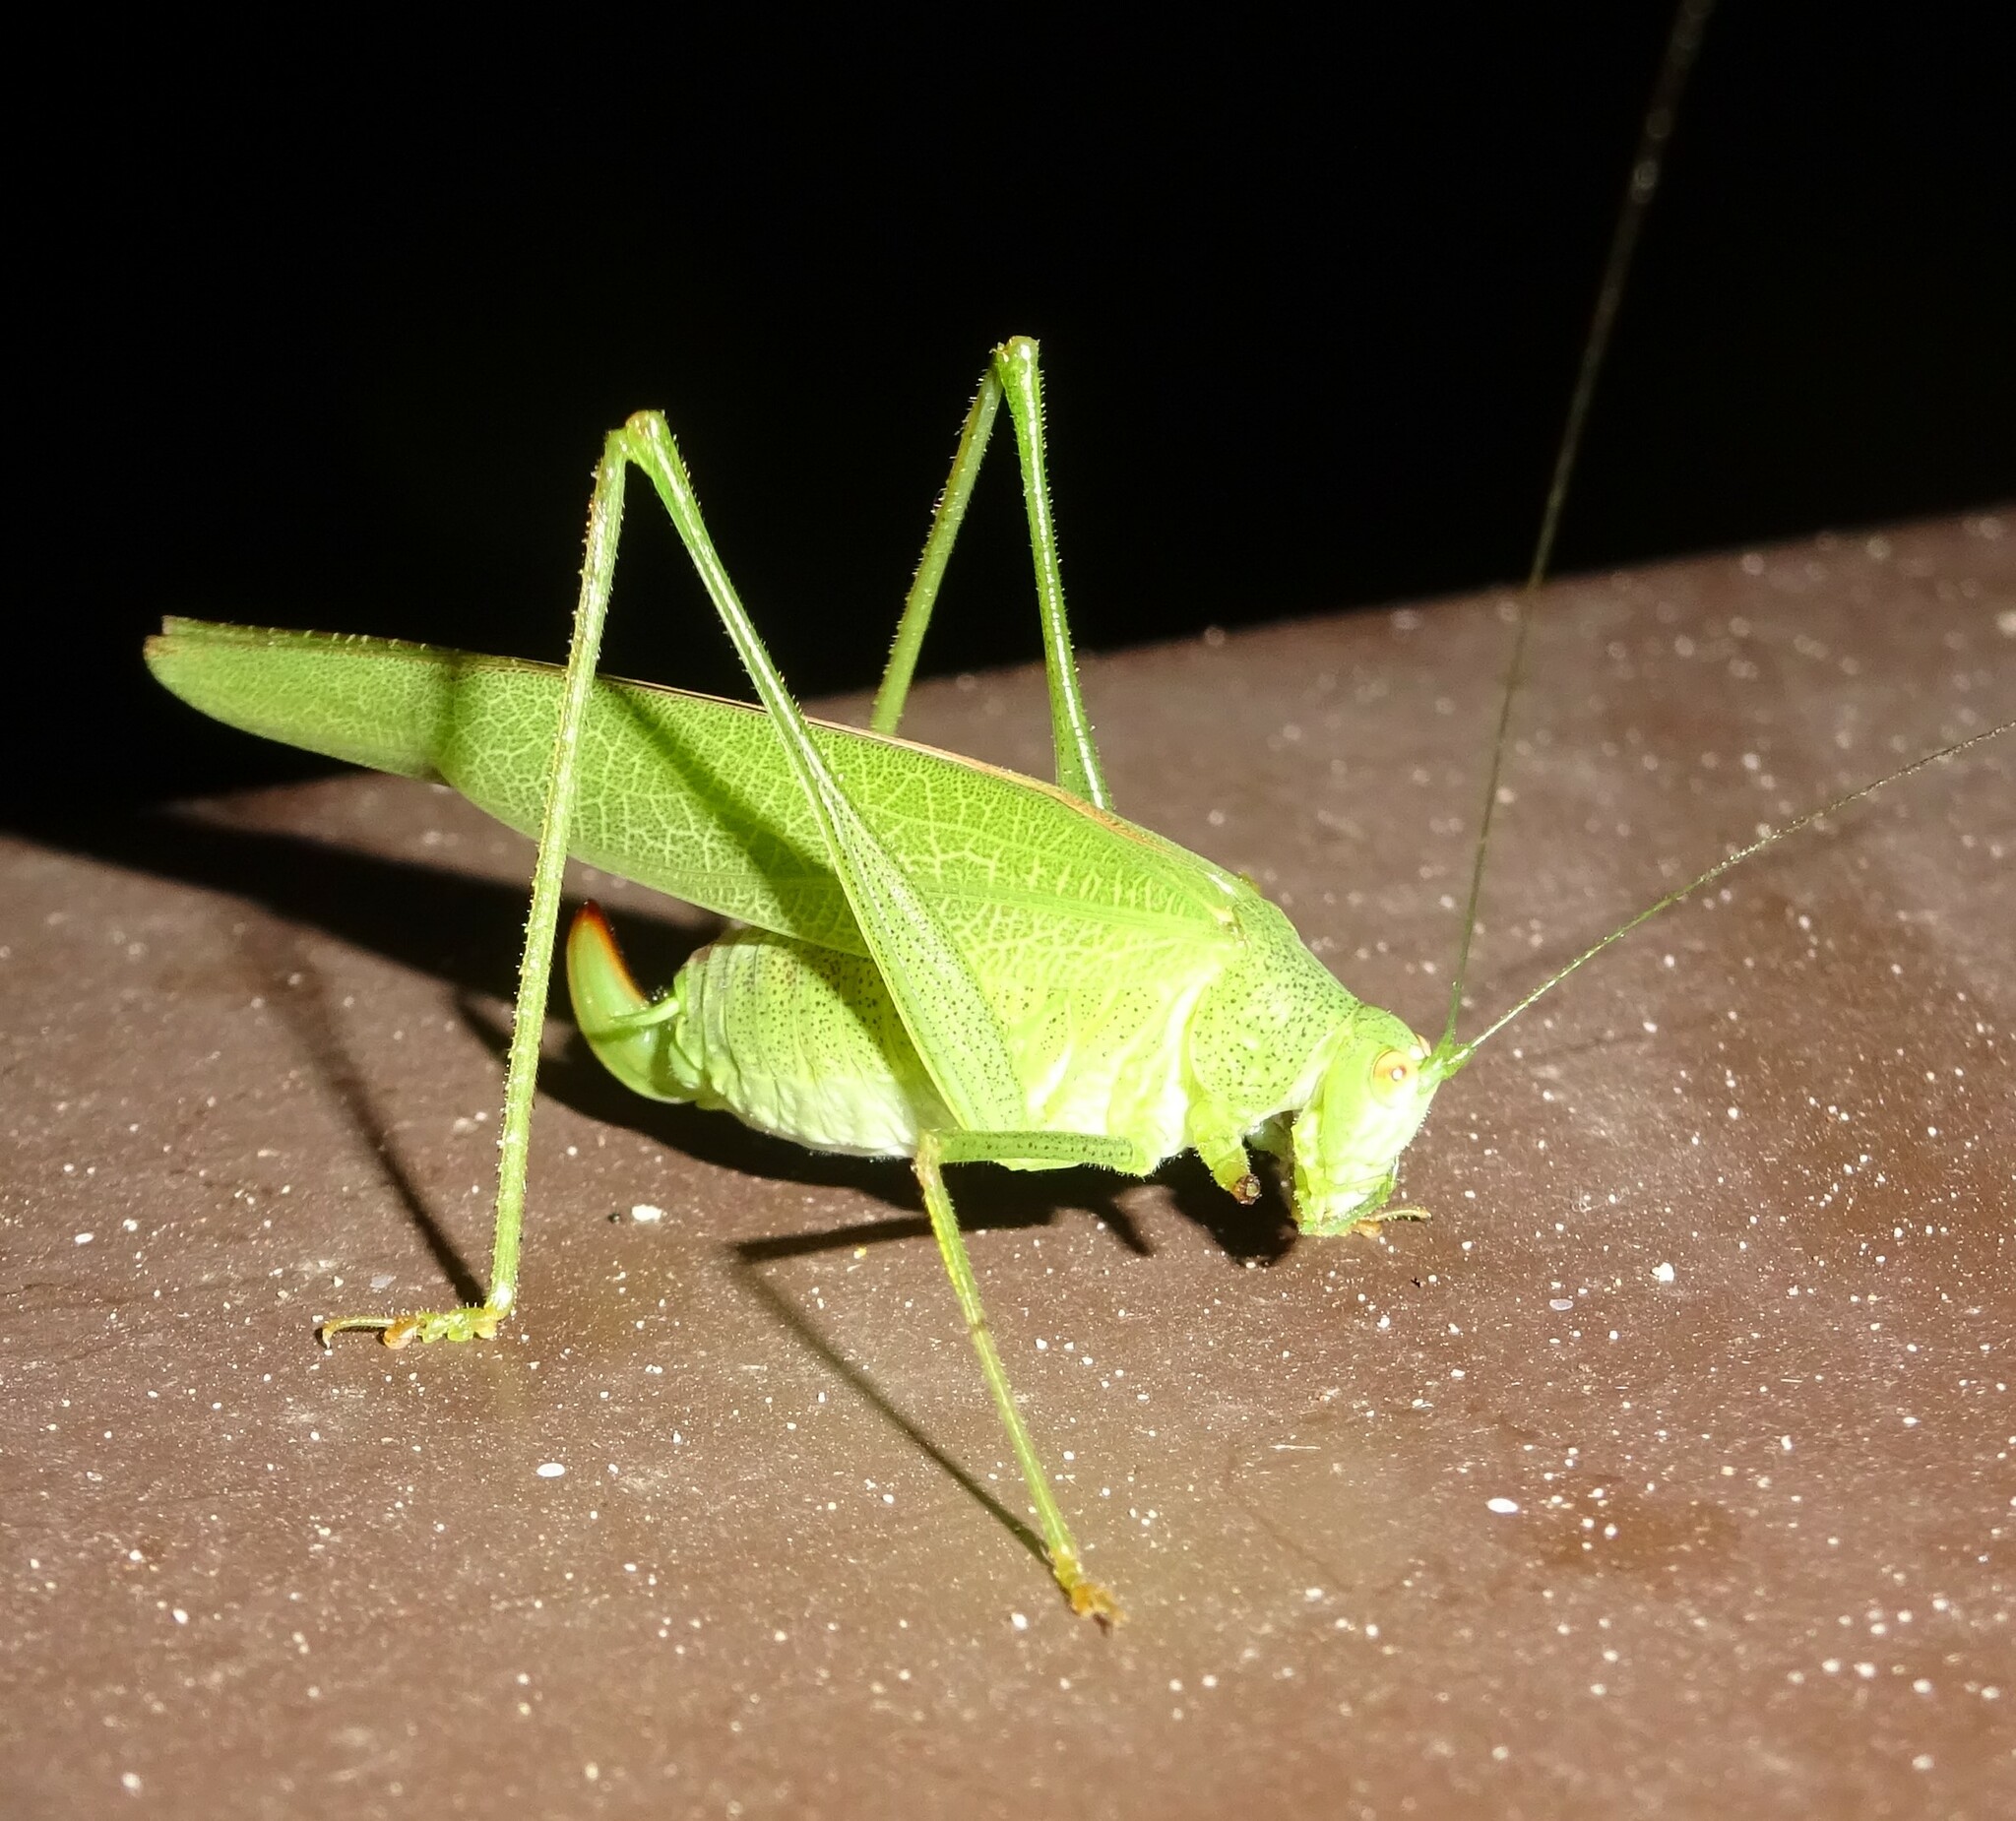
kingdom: Animalia
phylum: Arthropoda
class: Insecta
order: Orthoptera
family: Tettigoniidae
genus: Phaneroptera
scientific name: Phaneroptera nana
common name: Southern sickle bush-cricket
